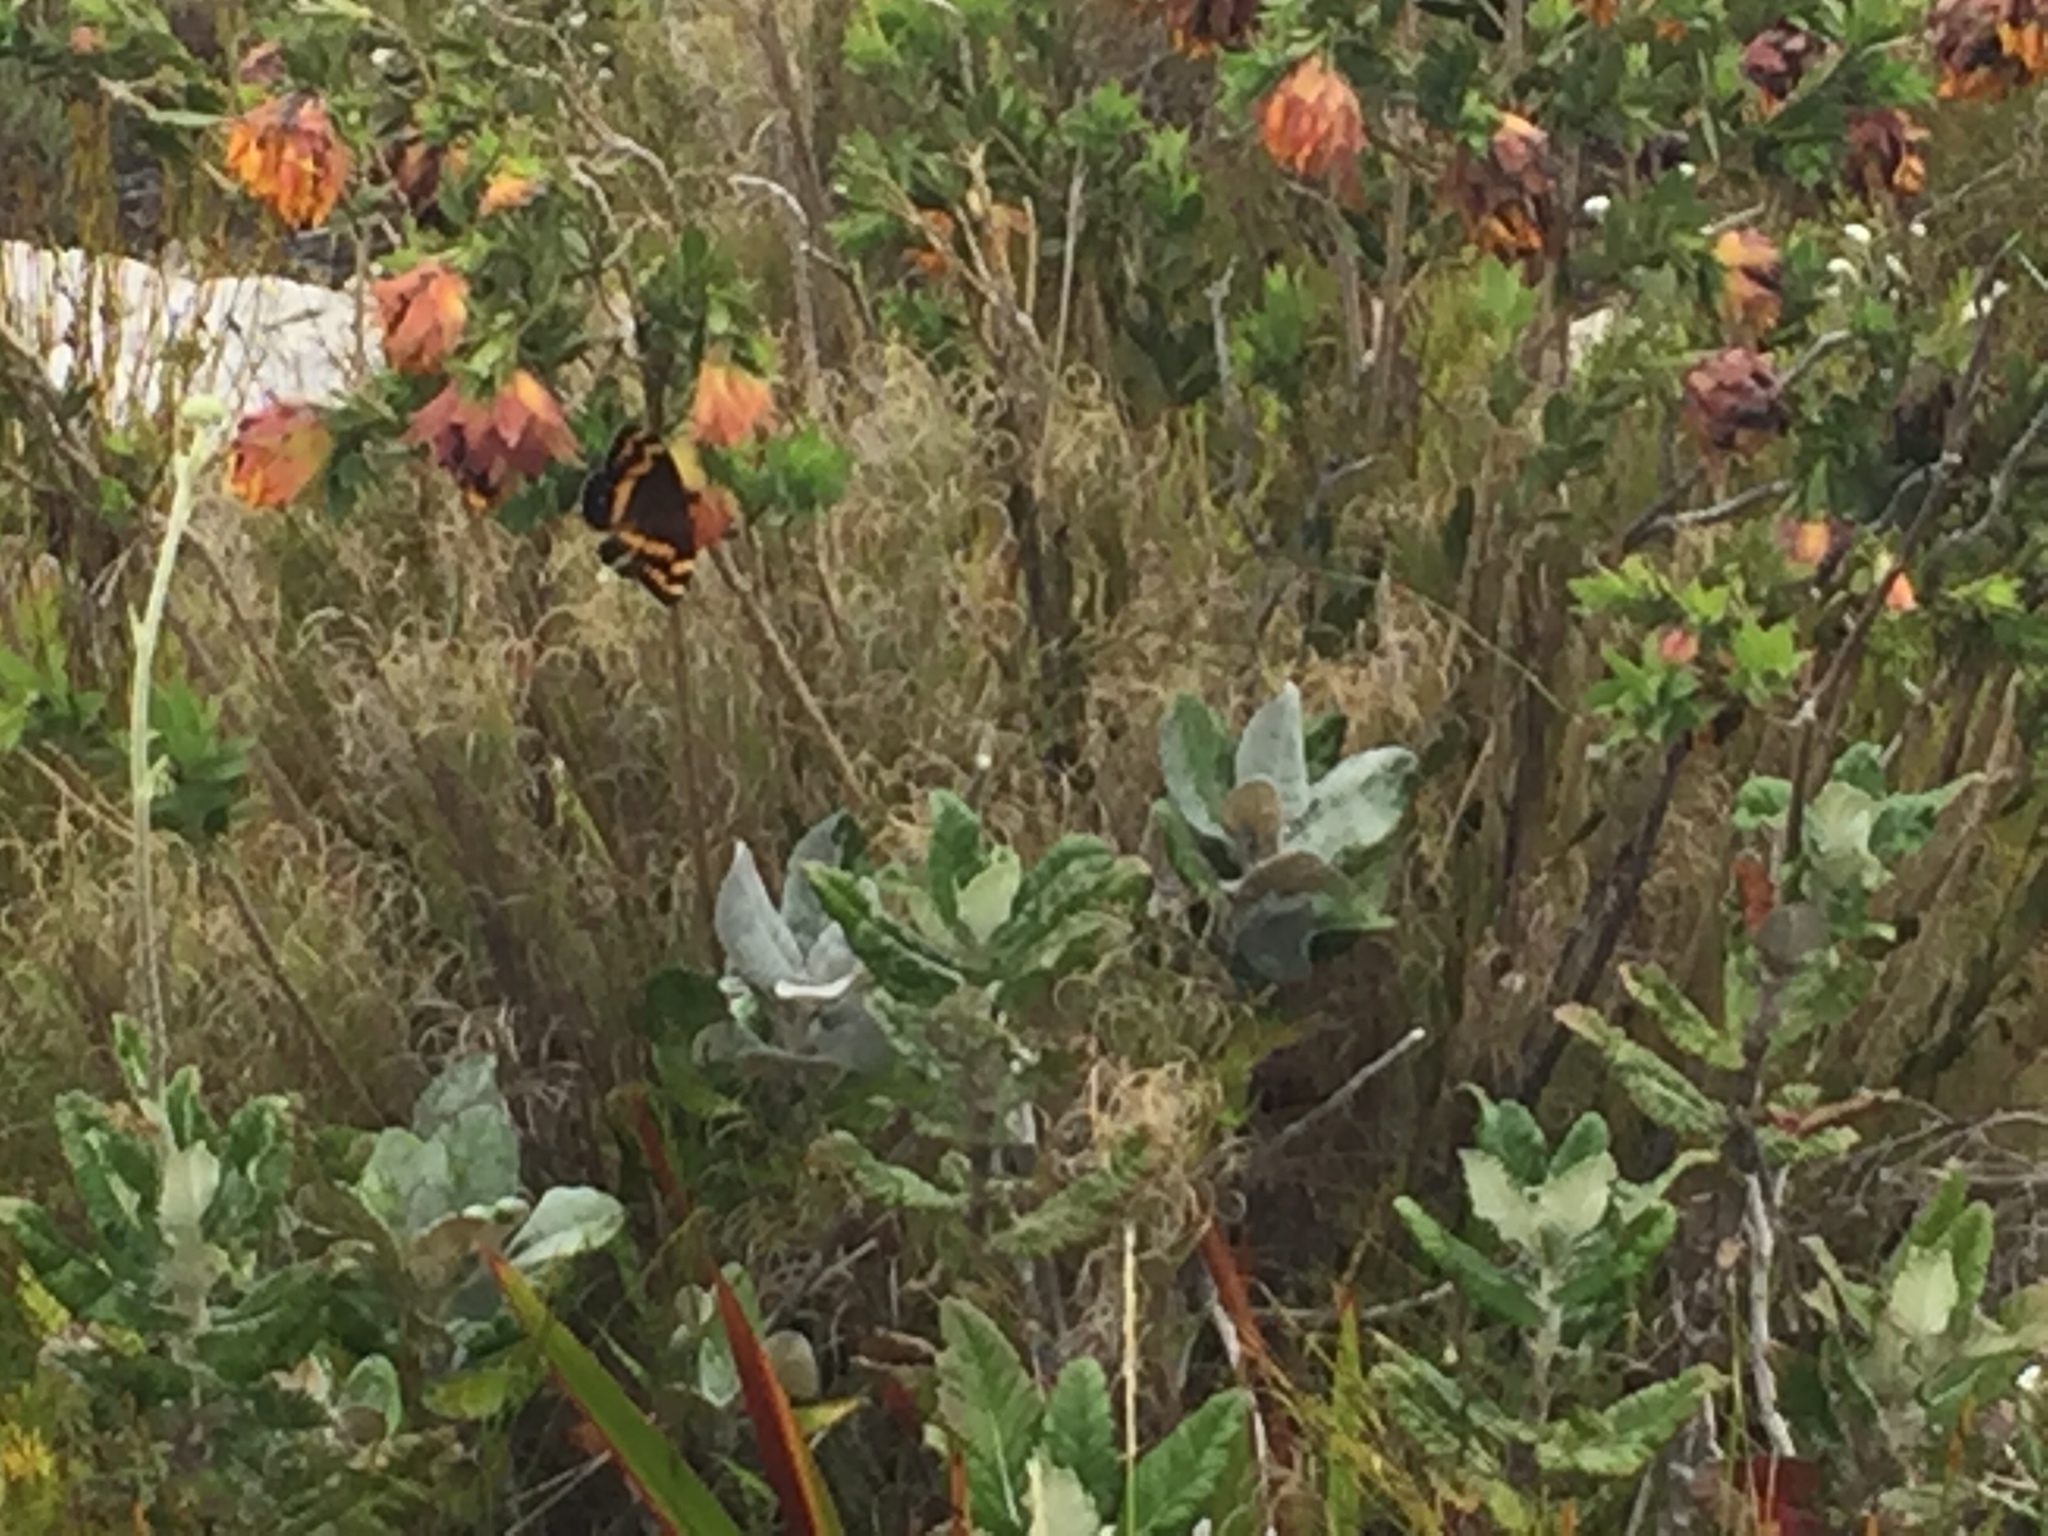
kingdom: Animalia
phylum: Arthropoda
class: Insecta
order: Lepidoptera
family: Nymphalidae
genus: Meneris
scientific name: Meneris Aeropetes tulbaghia
